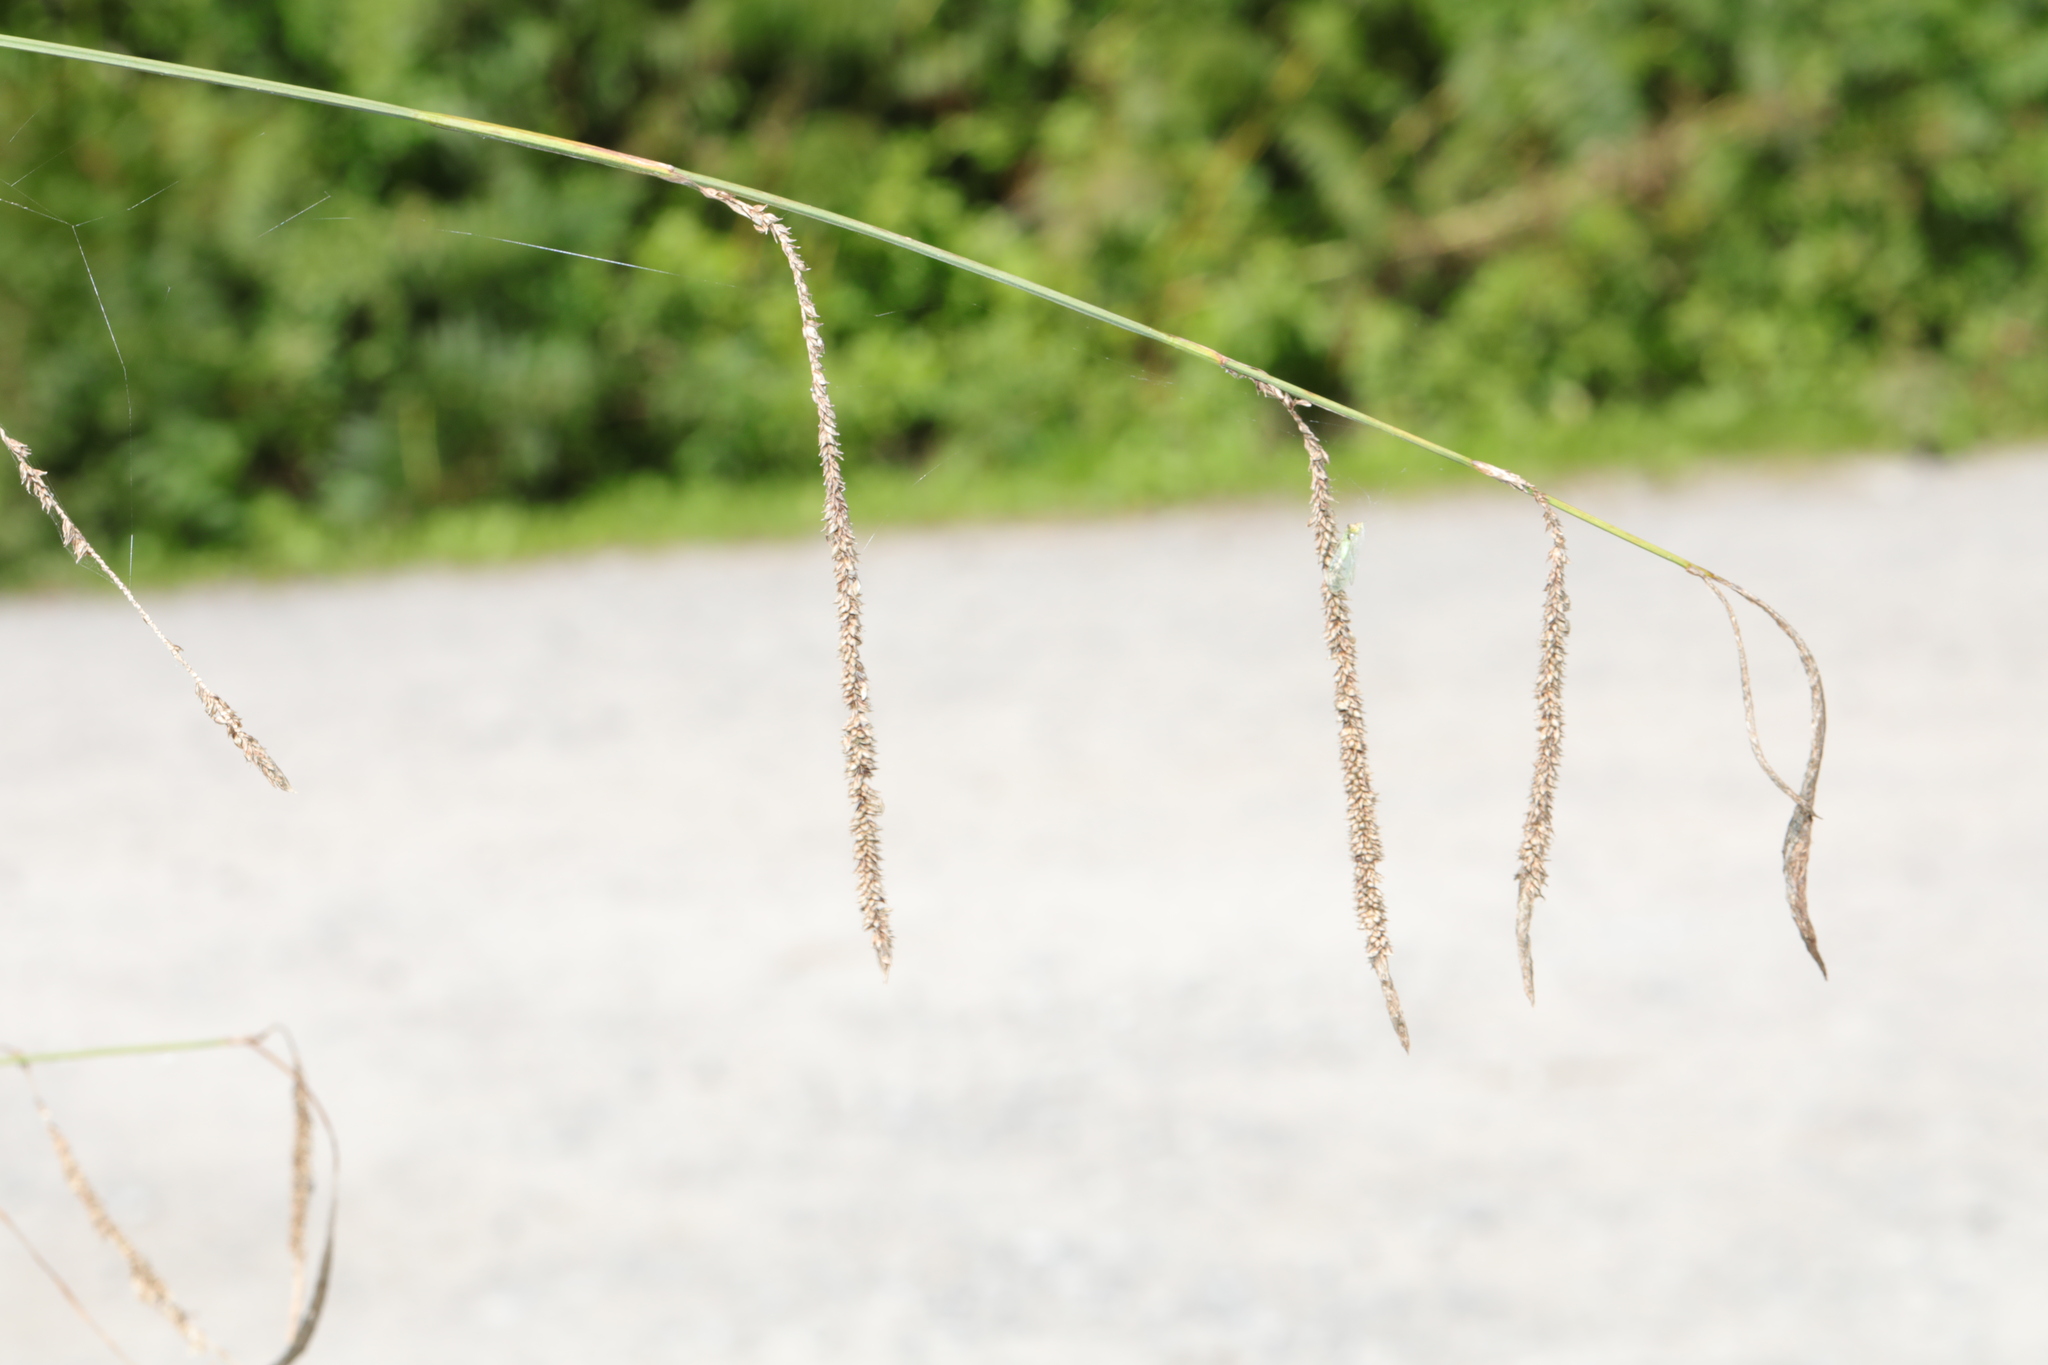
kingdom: Plantae
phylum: Tracheophyta
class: Liliopsida
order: Poales
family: Cyperaceae
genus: Carex
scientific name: Carex pendula
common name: Pendulous sedge
